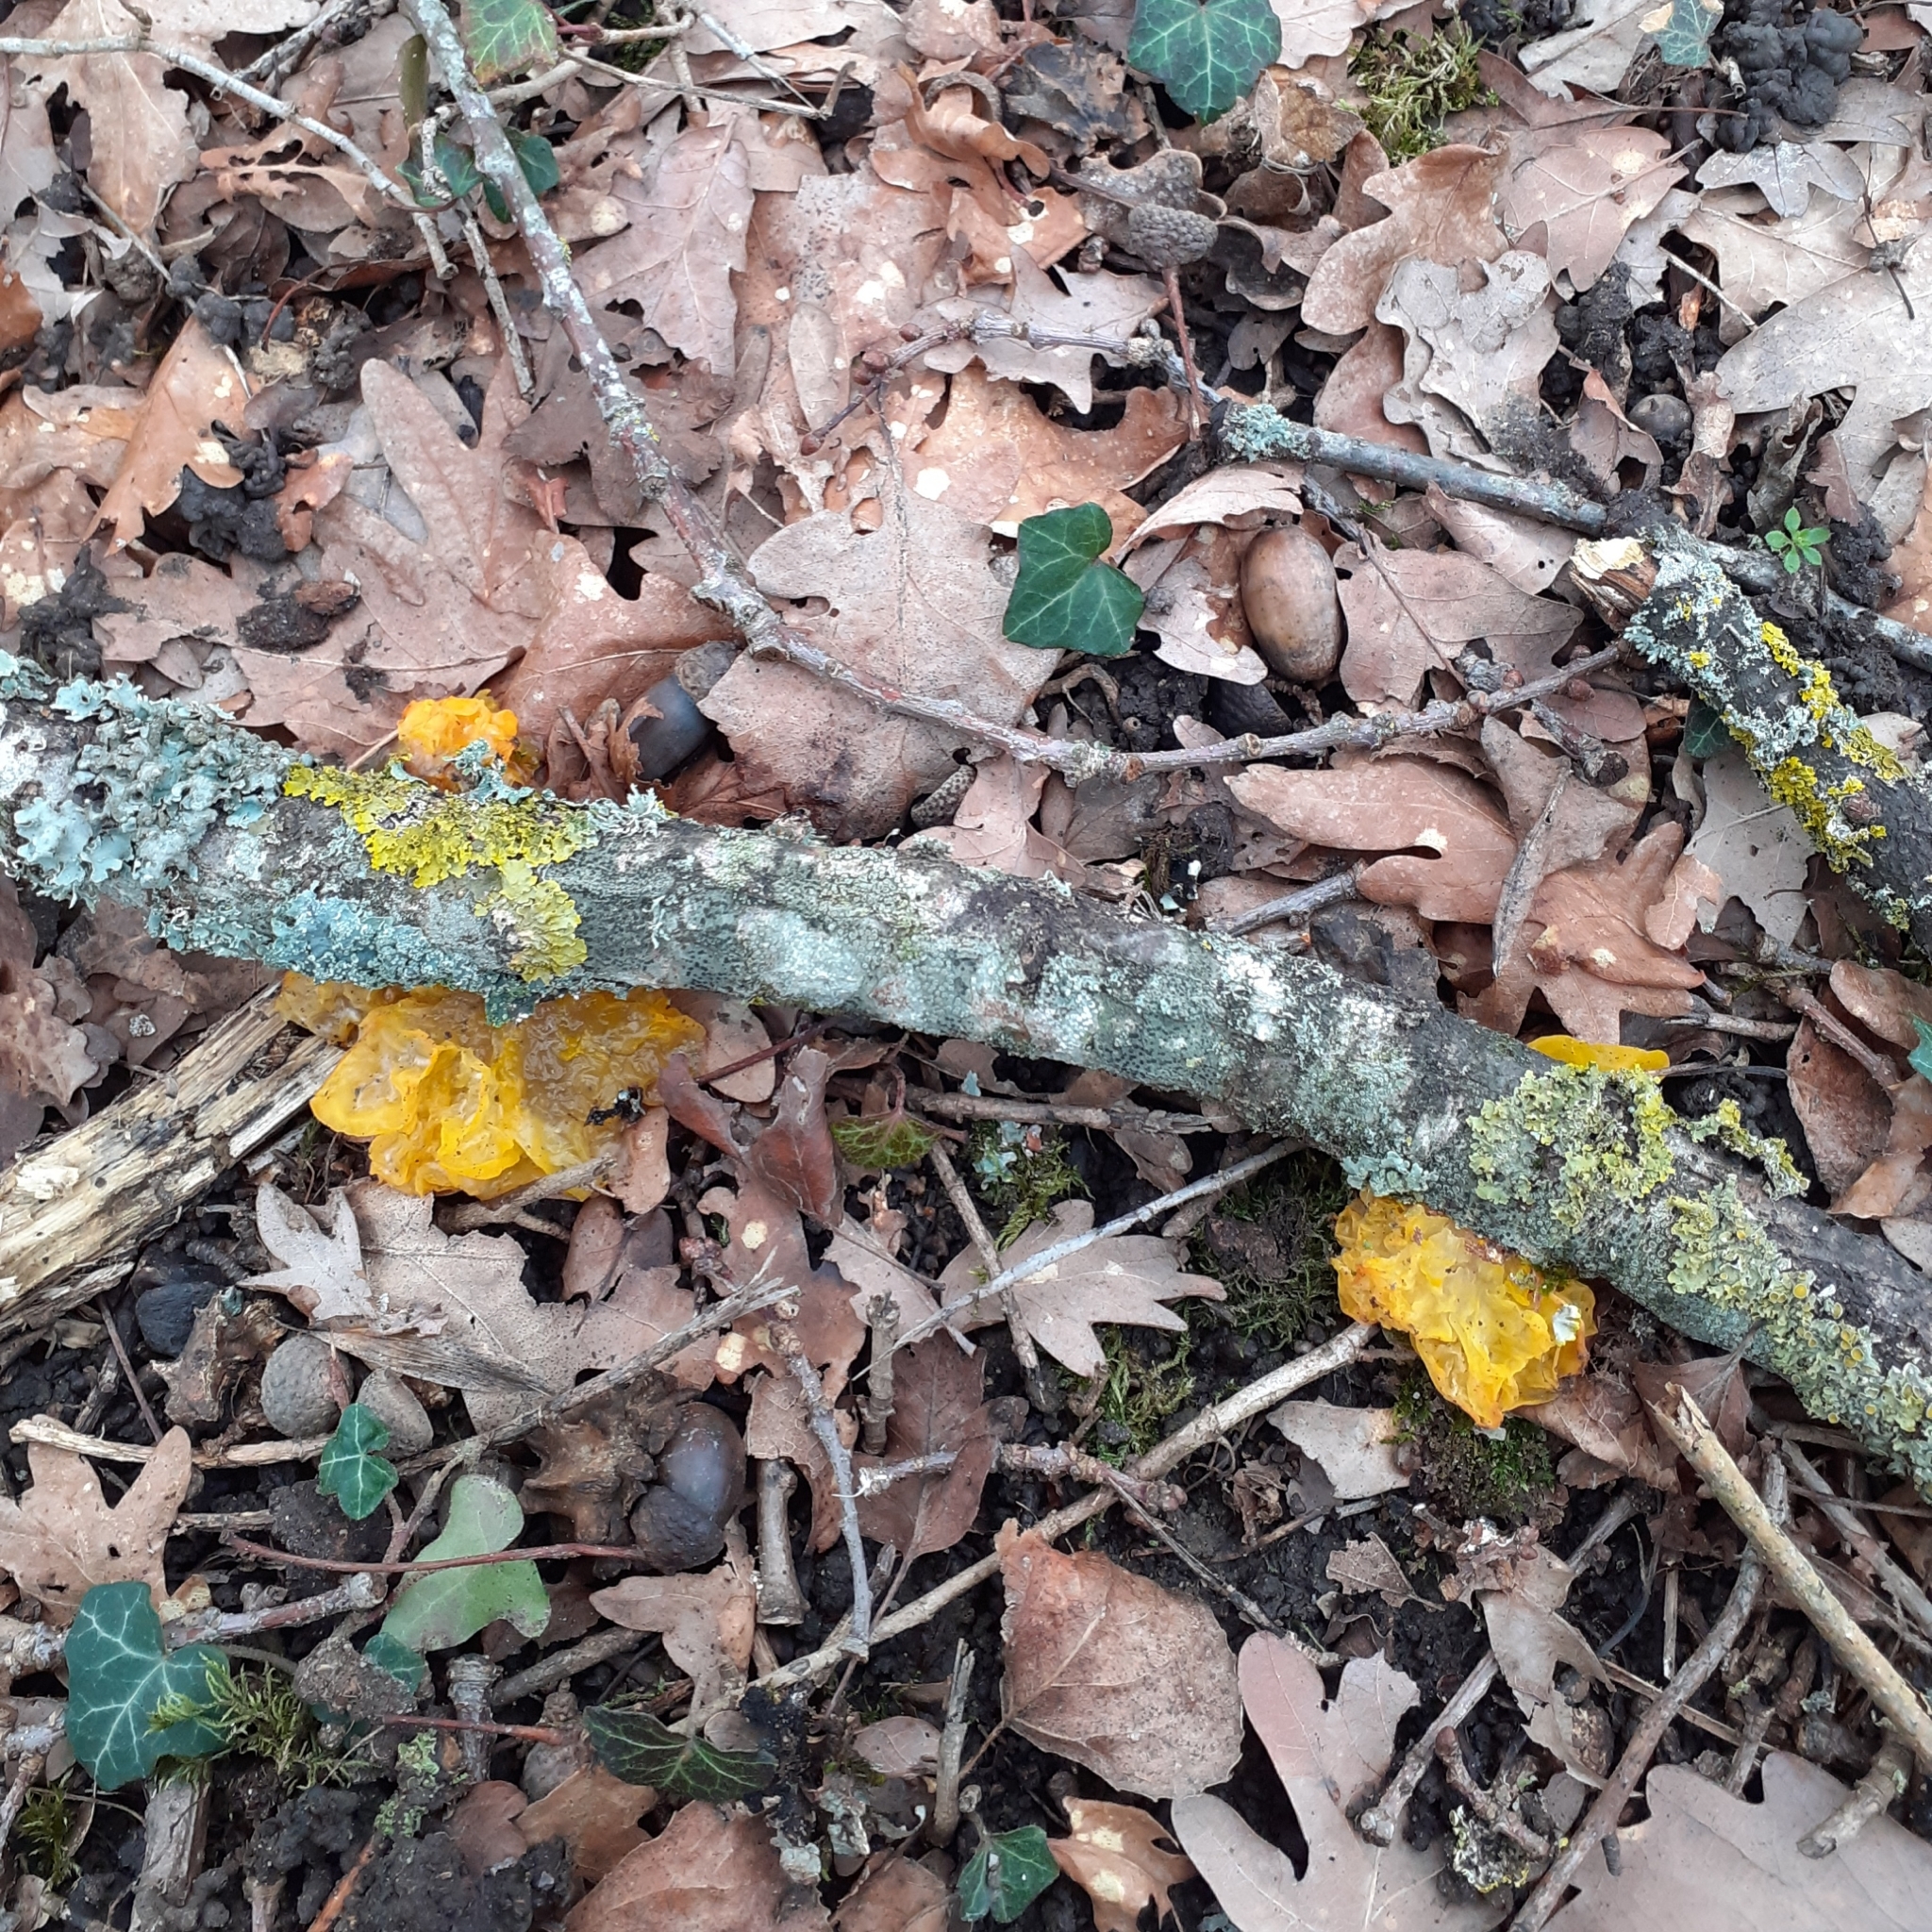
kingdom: Fungi
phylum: Basidiomycota
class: Tremellomycetes
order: Tremellales
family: Tremellaceae
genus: Tremella
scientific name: Tremella mesenterica
